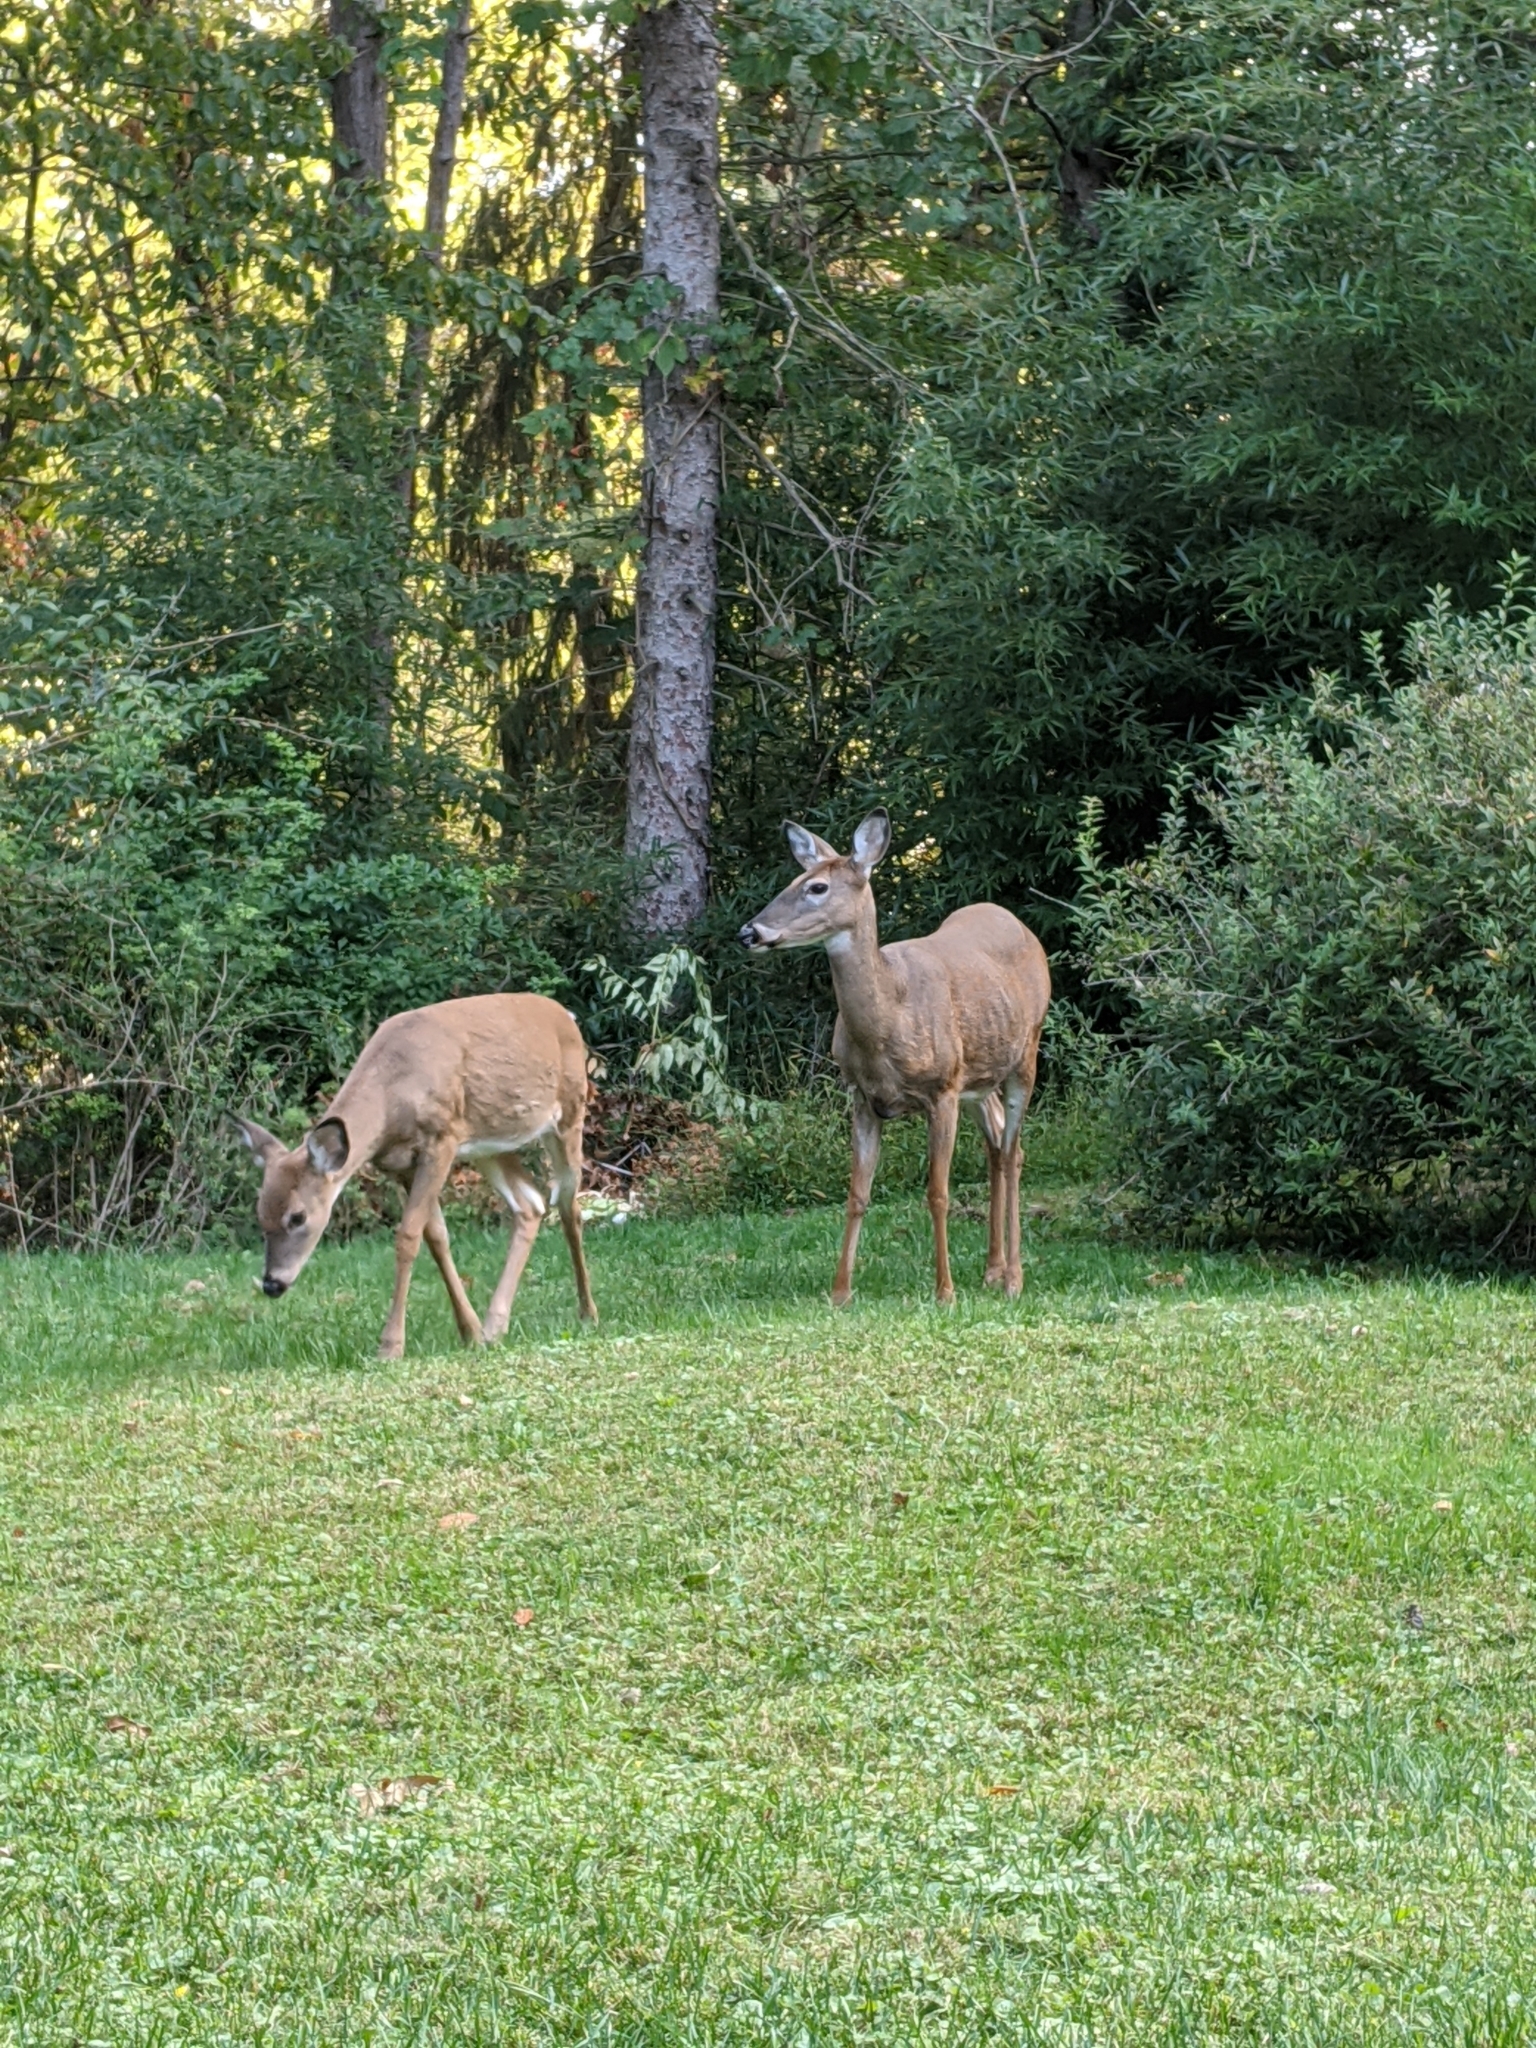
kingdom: Animalia
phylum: Chordata
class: Mammalia
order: Artiodactyla
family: Cervidae
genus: Odocoileus
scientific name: Odocoileus virginianus
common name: White-tailed deer
